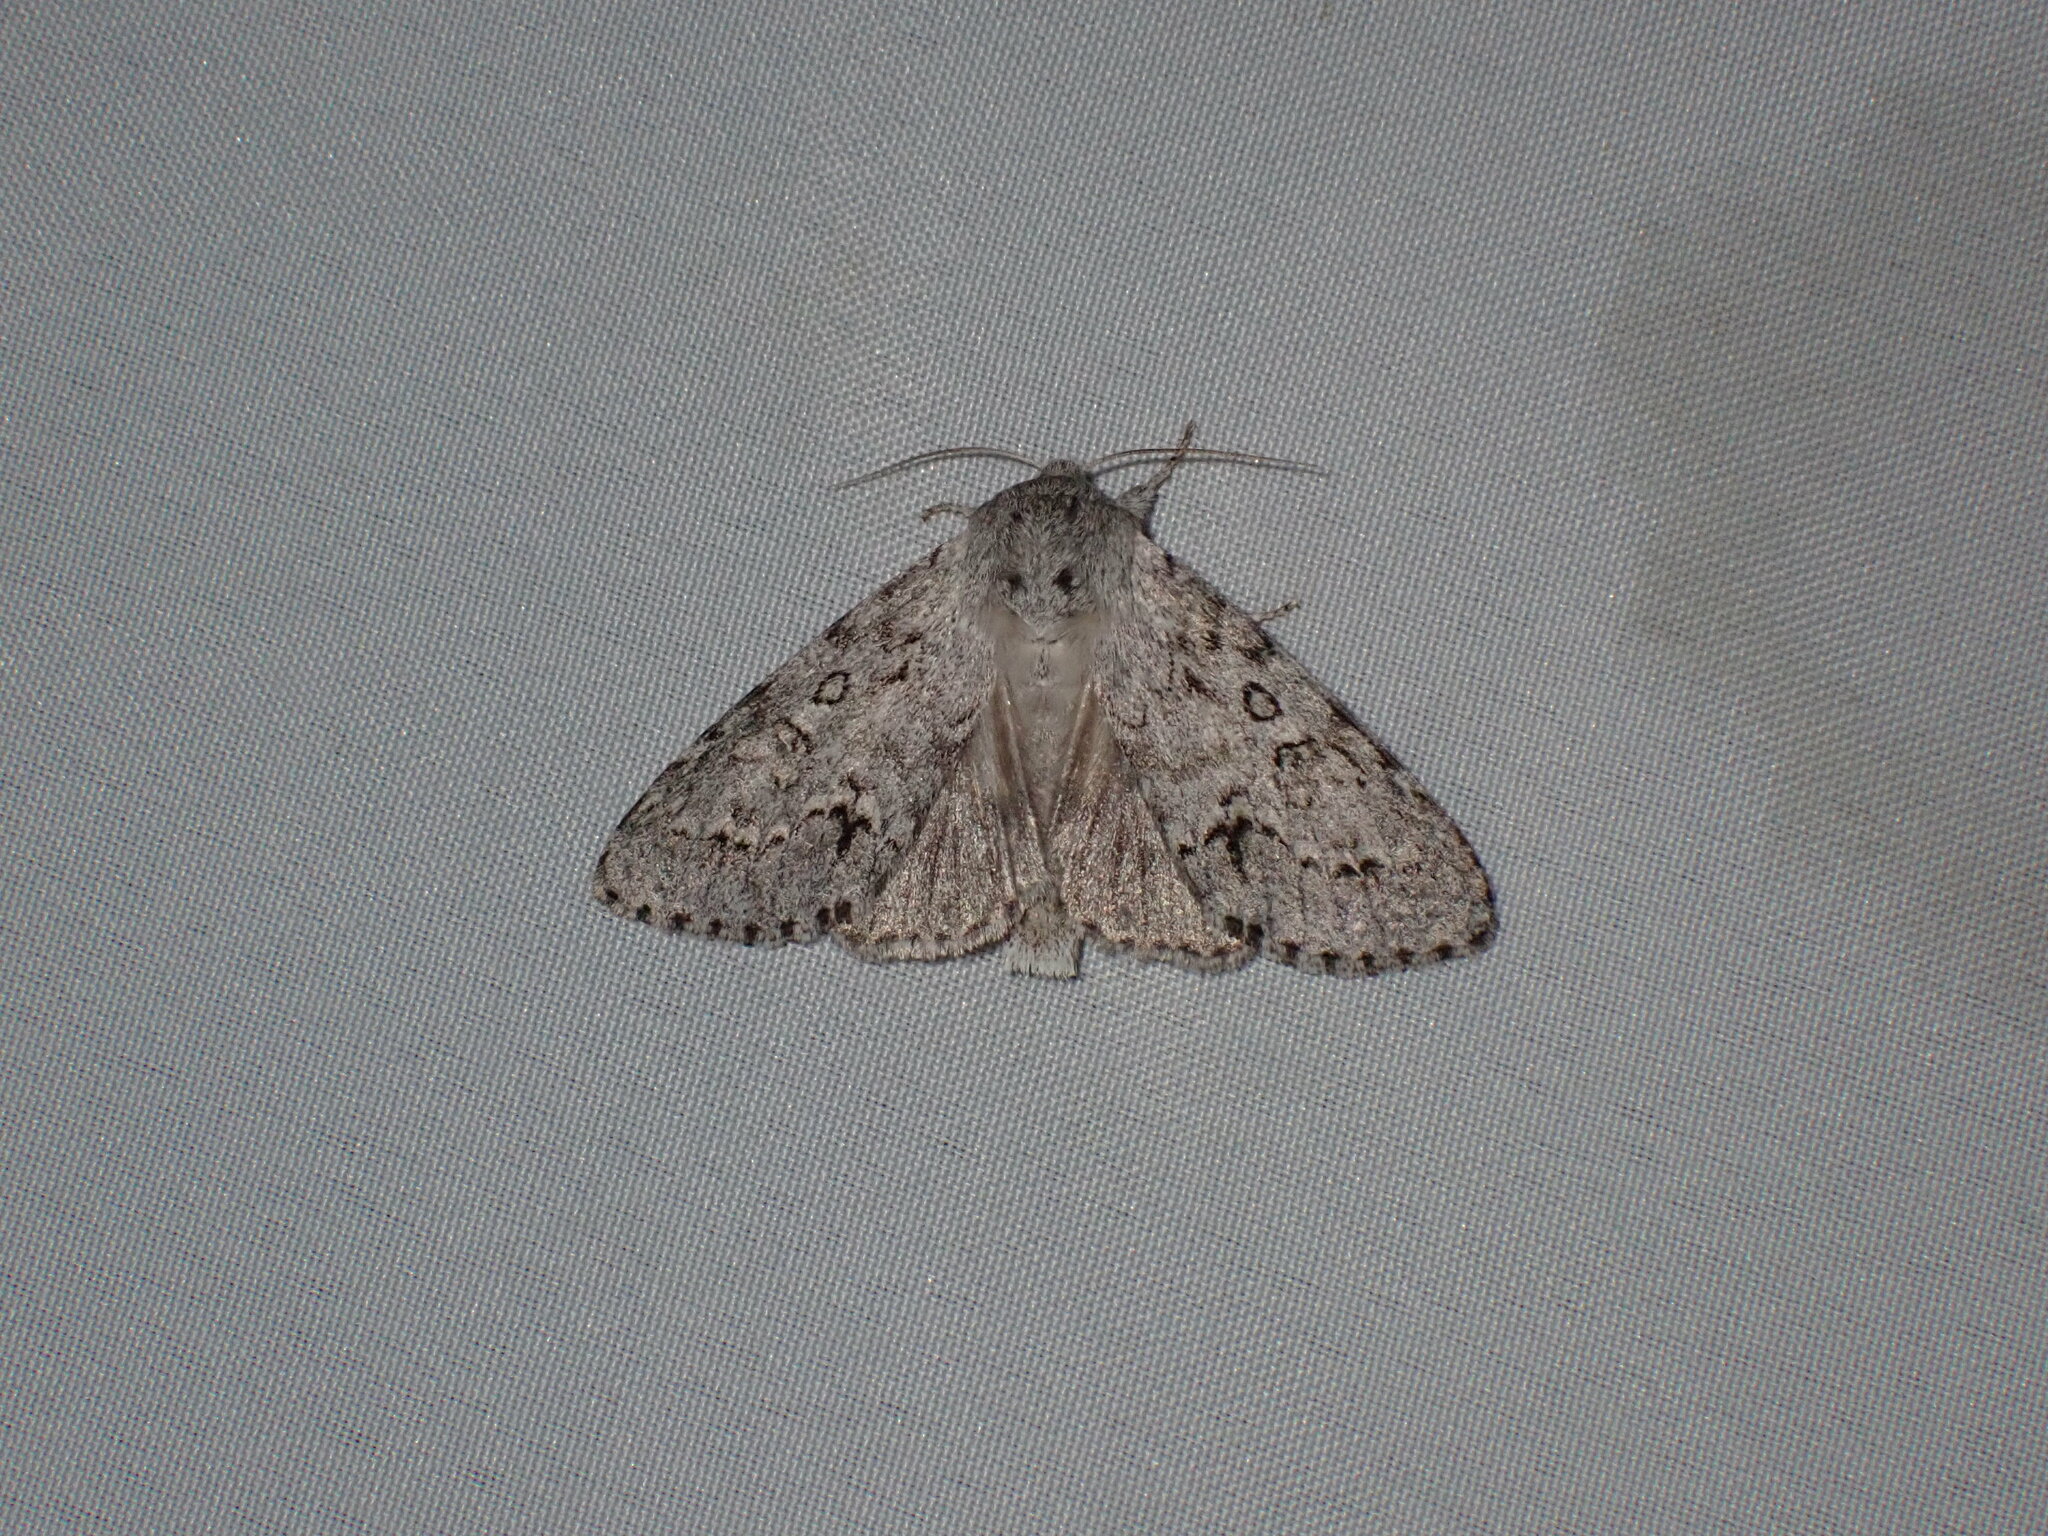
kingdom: Animalia
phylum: Arthropoda
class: Insecta
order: Lepidoptera
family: Noctuidae
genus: Acronicta
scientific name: Acronicta insita
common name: Large gray dagger
